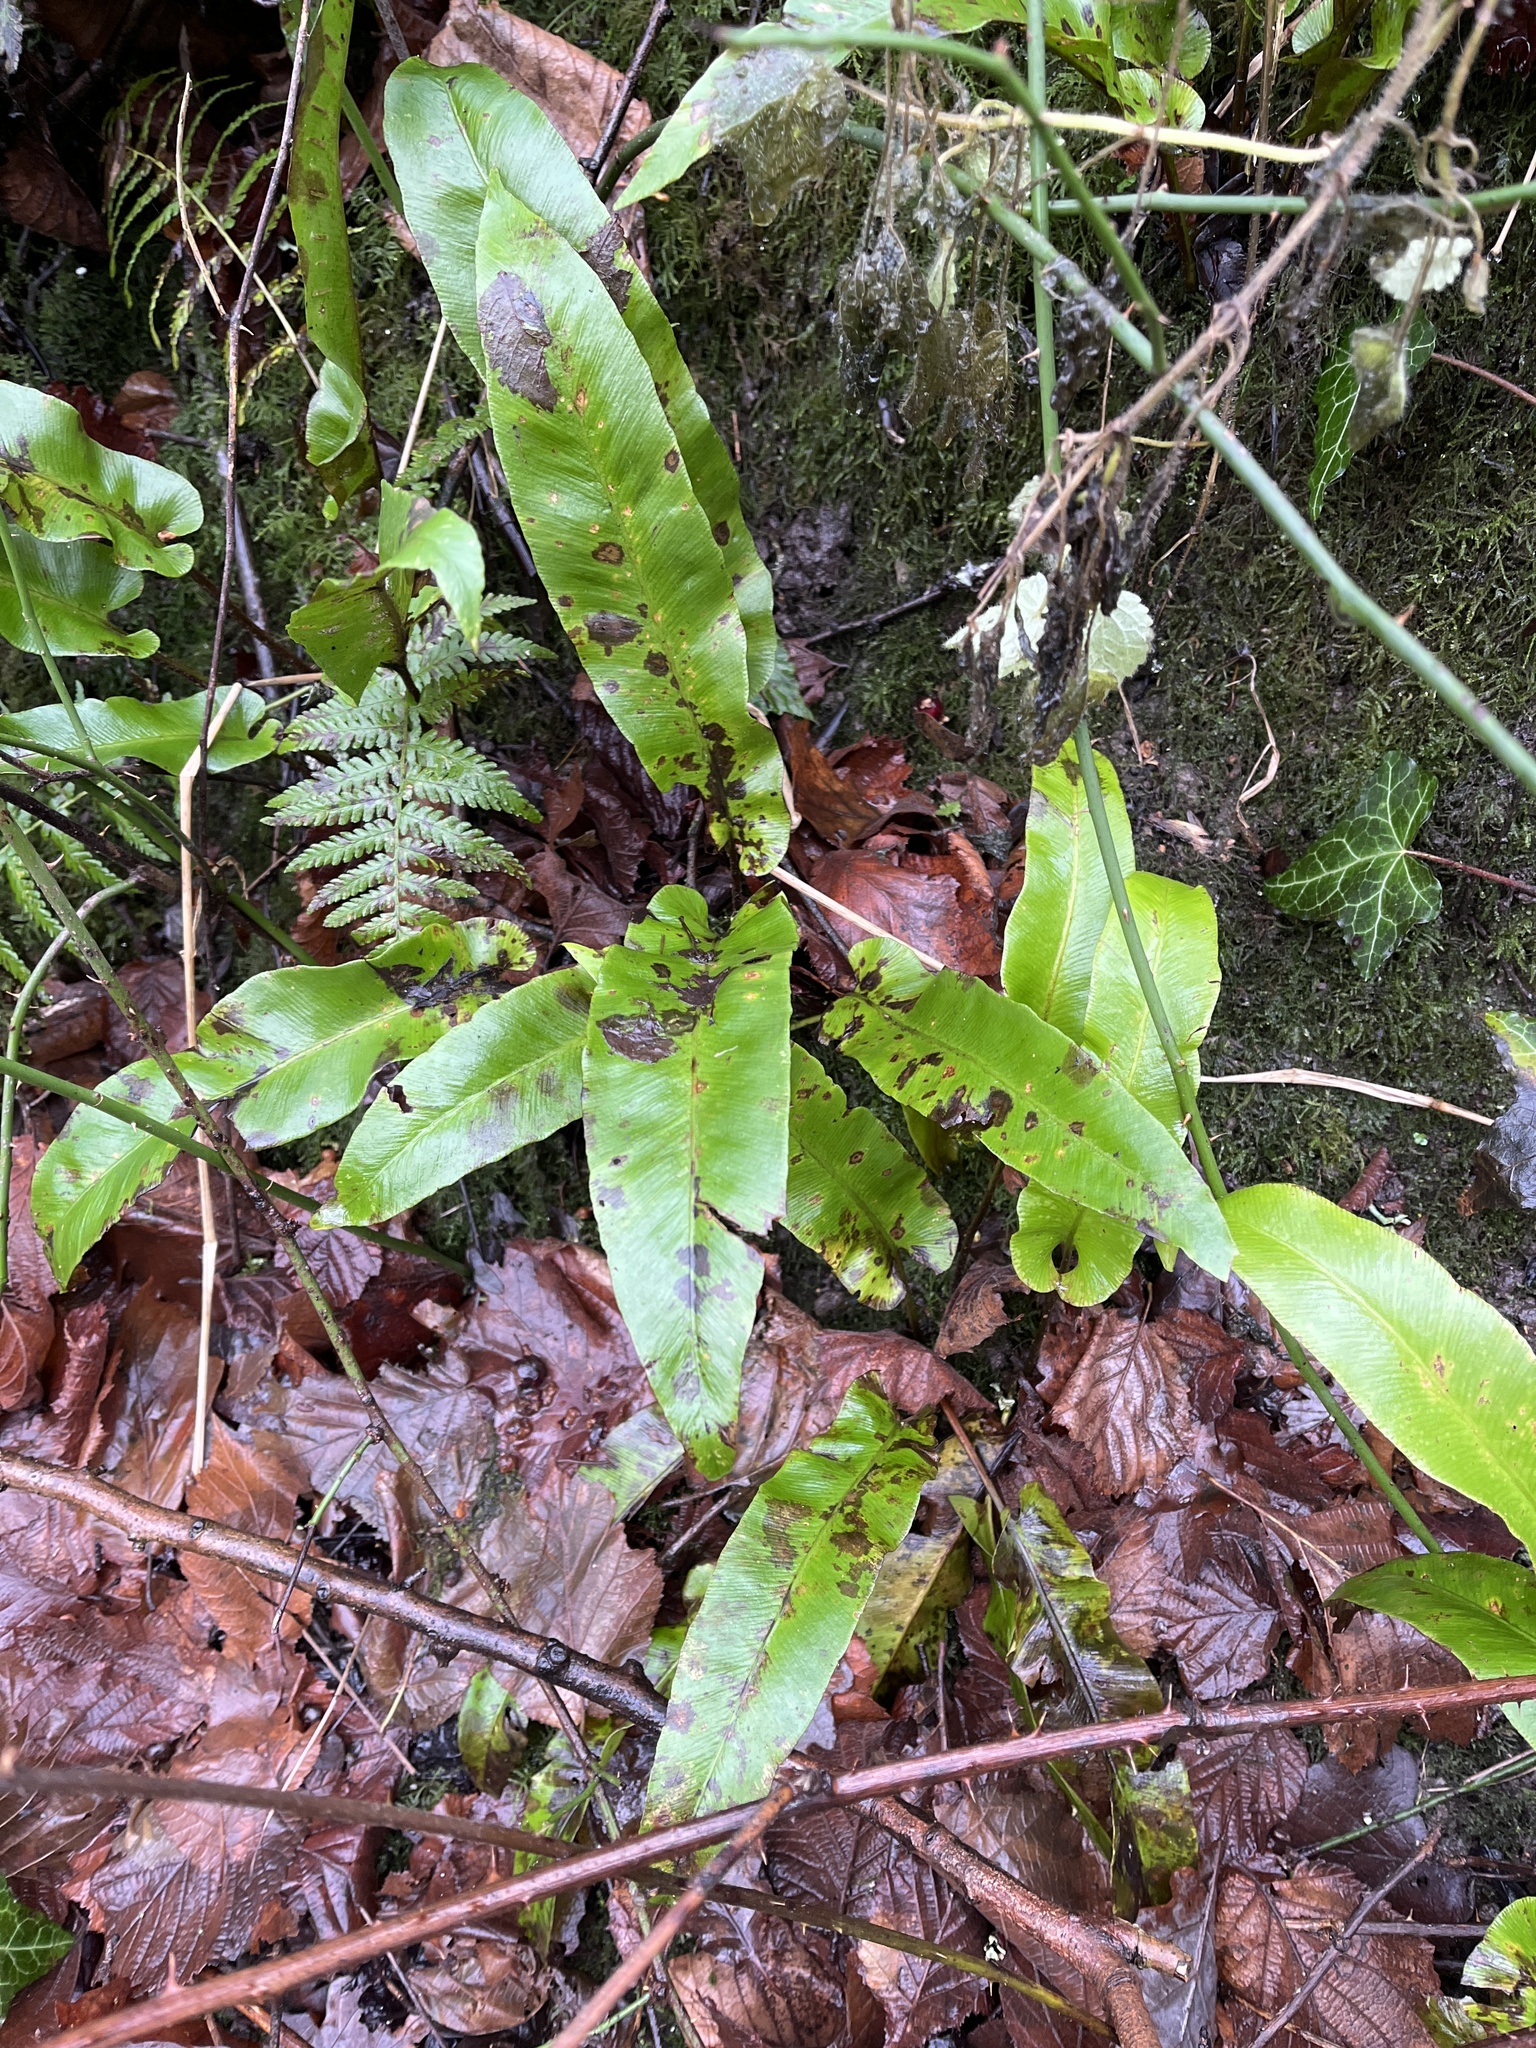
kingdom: Plantae
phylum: Tracheophyta
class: Polypodiopsida
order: Polypodiales
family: Aspleniaceae
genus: Asplenium
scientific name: Asplenium scolopendrium
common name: Hart's-tongue fern
